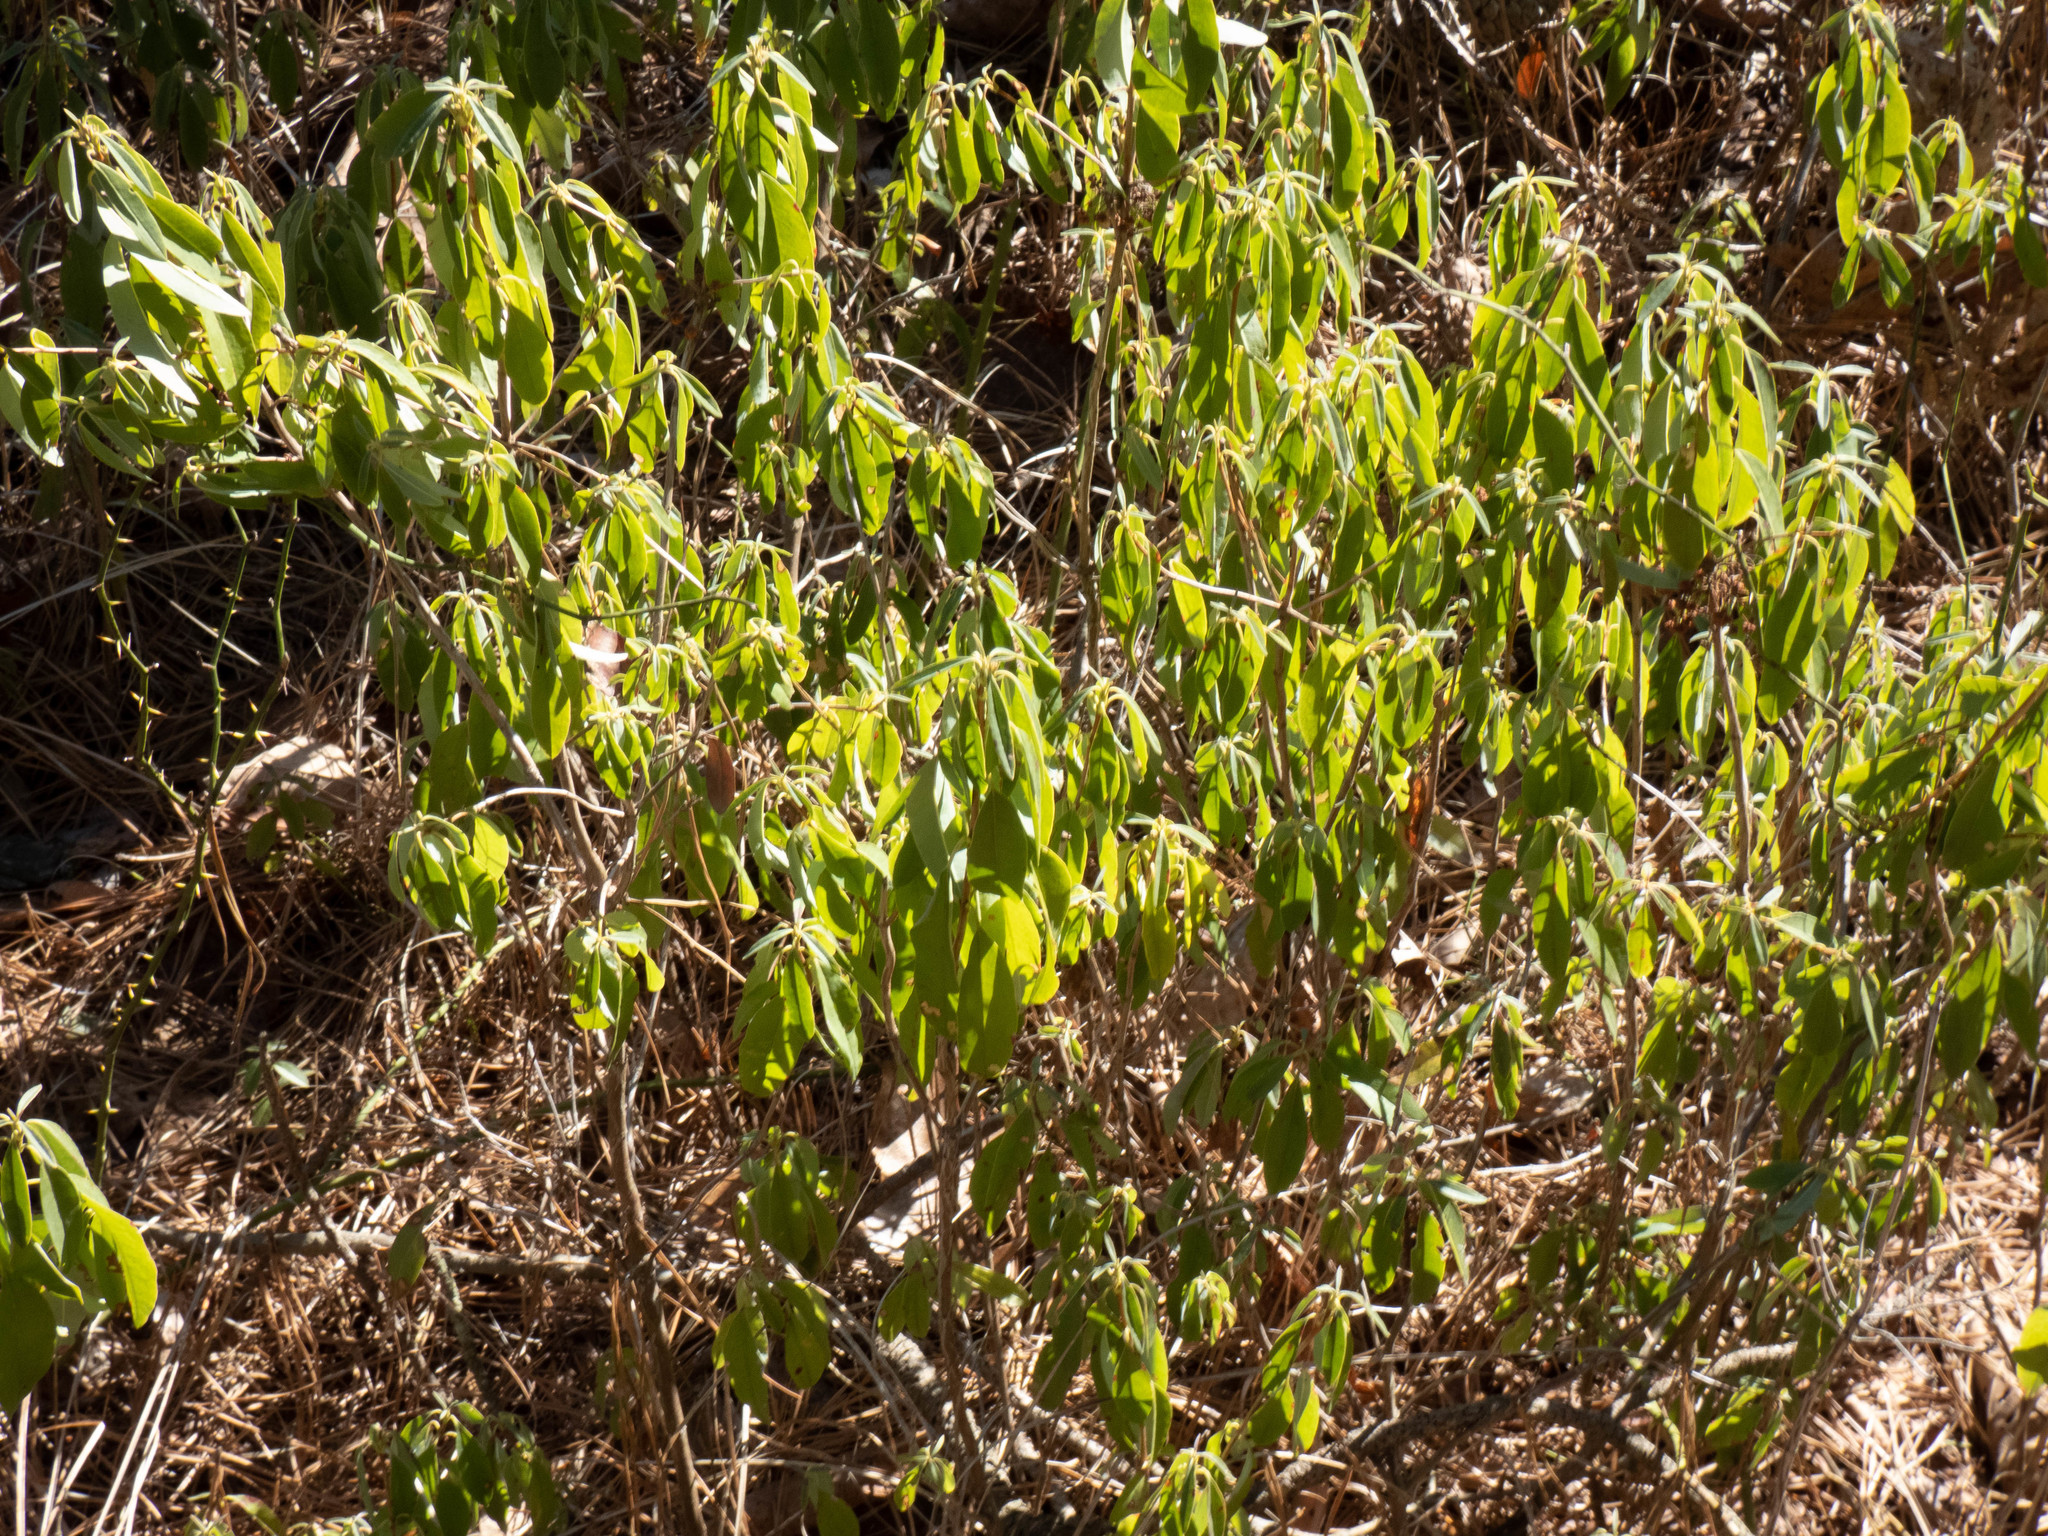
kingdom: Plantae
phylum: Tracheophyta
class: Magnoliopsida
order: Ericales
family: Ericaceae
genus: Kalmia
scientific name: Kalmia angustifolia
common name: Sheep-laurel
